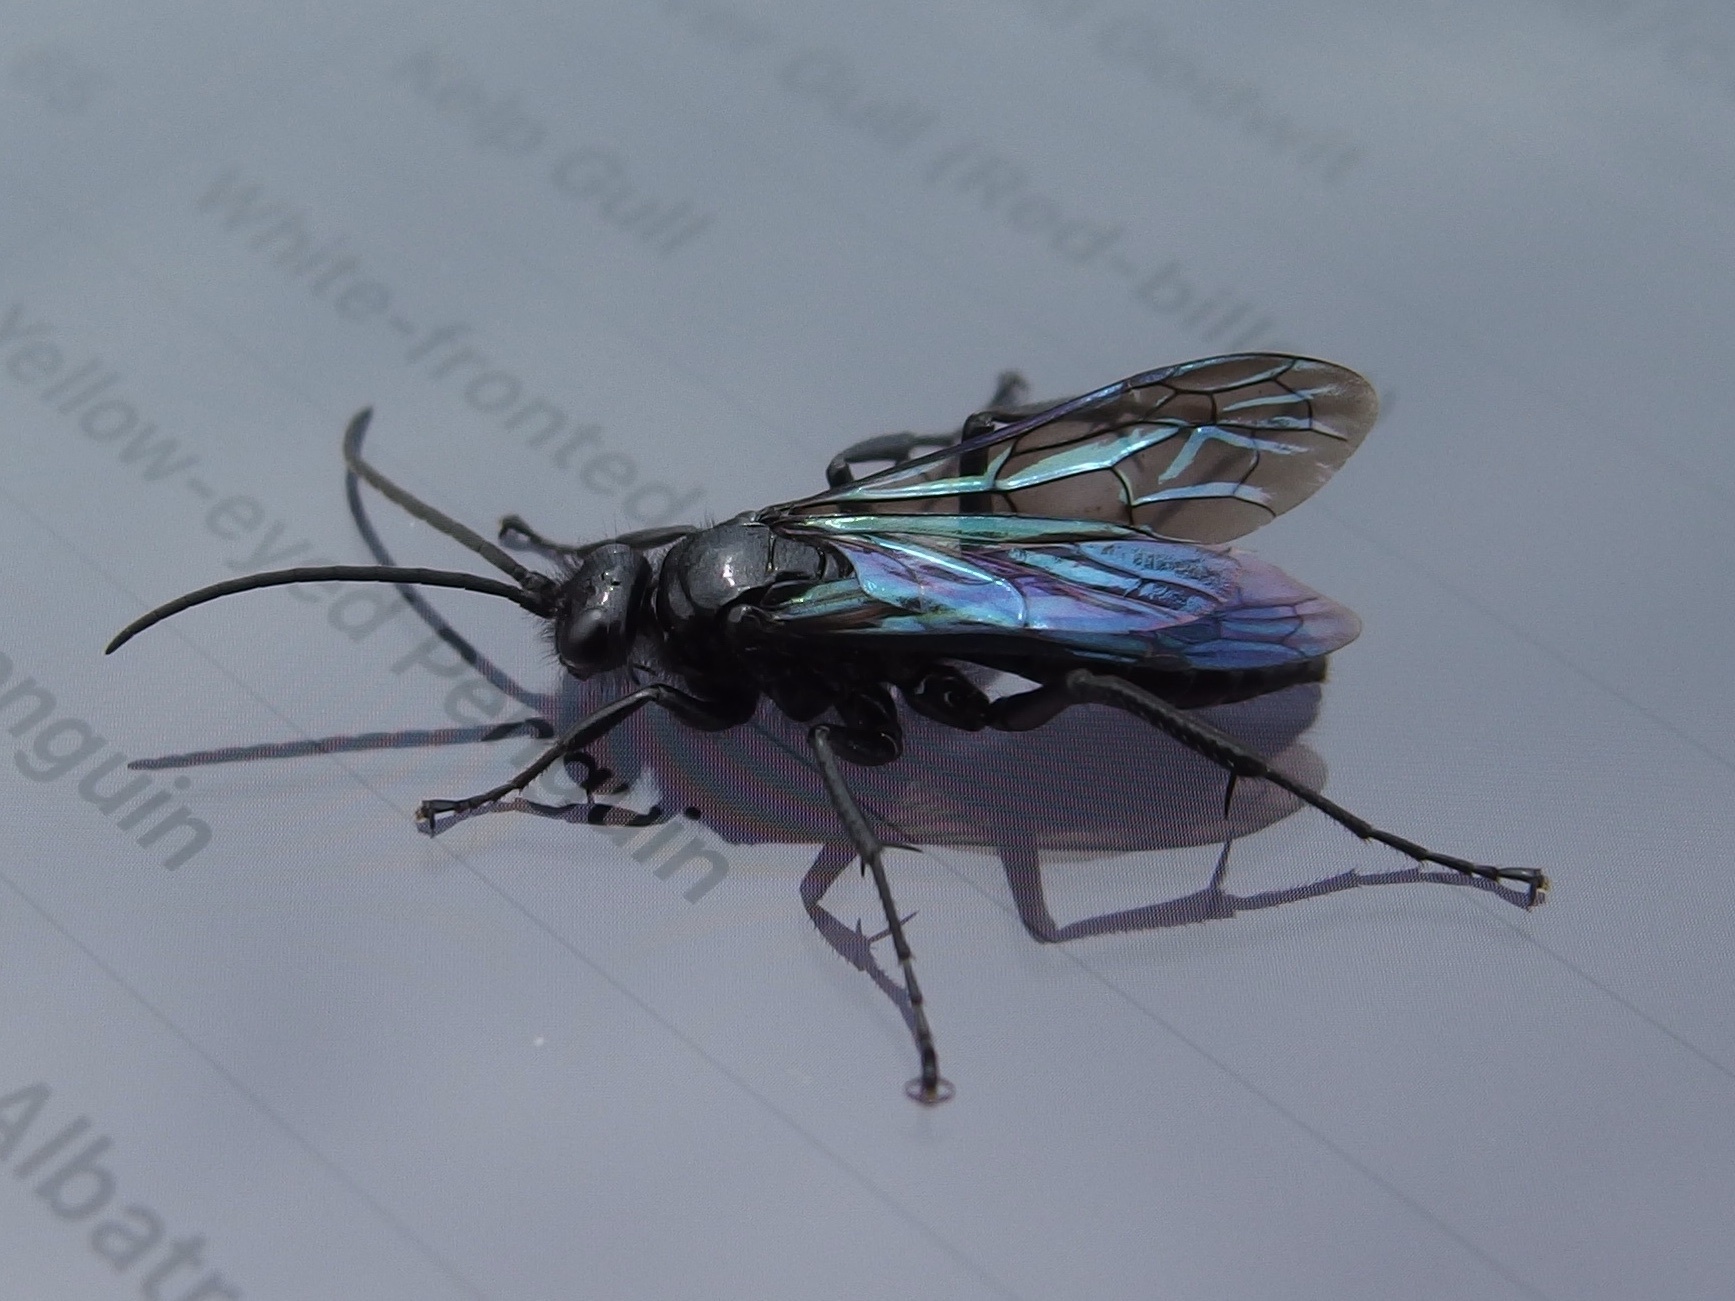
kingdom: Animalia
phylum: Arthropoda
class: Insecta
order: Hymenoptera
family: Pompilidae
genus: Priocnemis
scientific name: Priocnemis monachus
